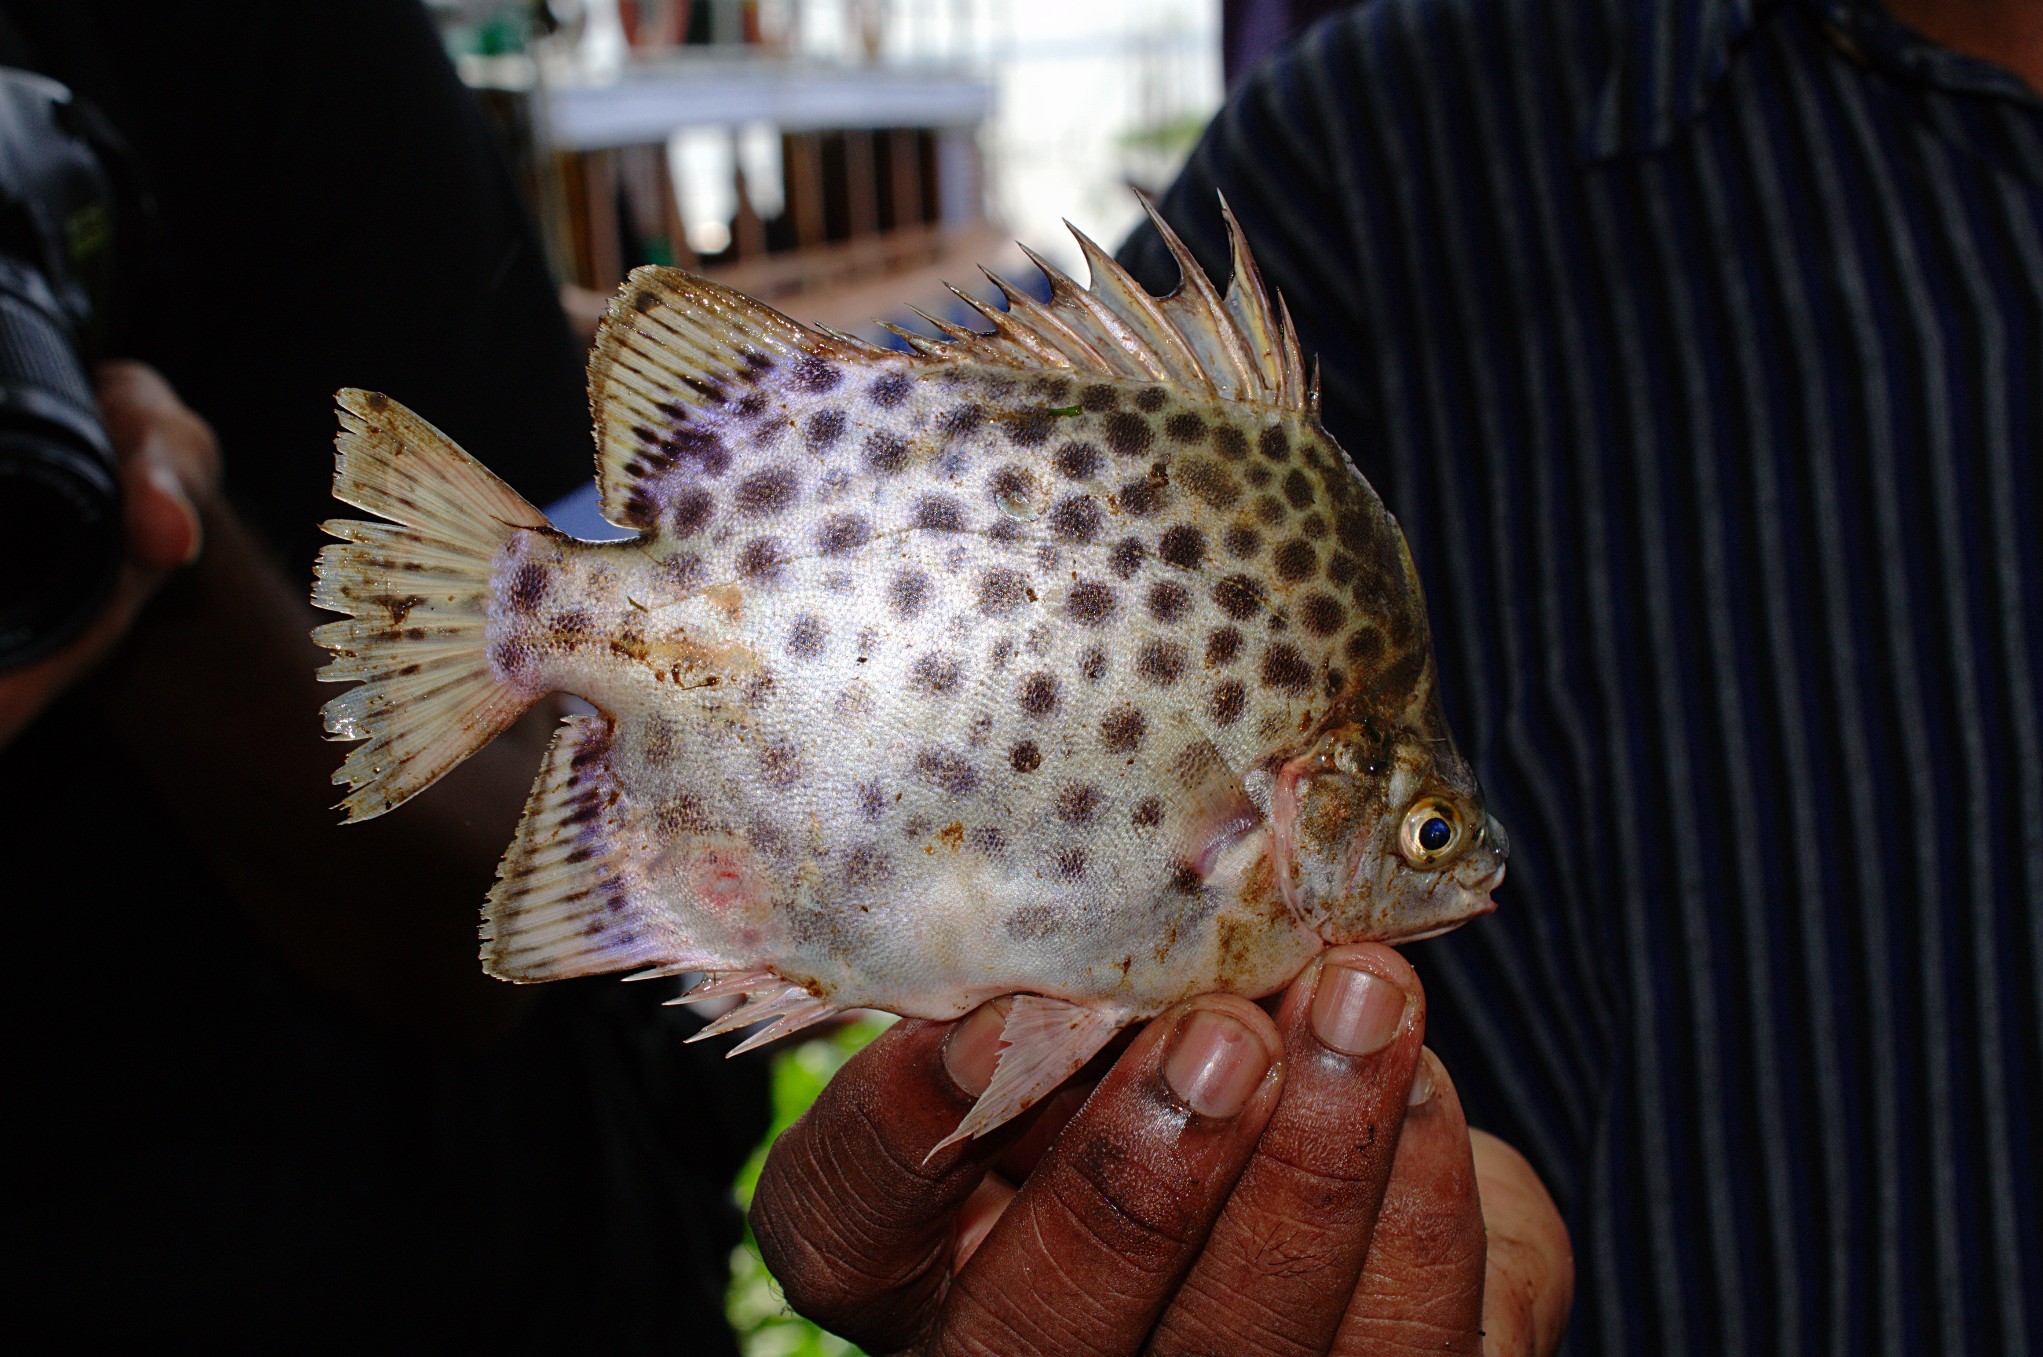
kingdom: Animalia
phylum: Chordata
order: Perciformes
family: Scatophagidae
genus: Scatophagus
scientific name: Scatophagus argus
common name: Spotted scat
